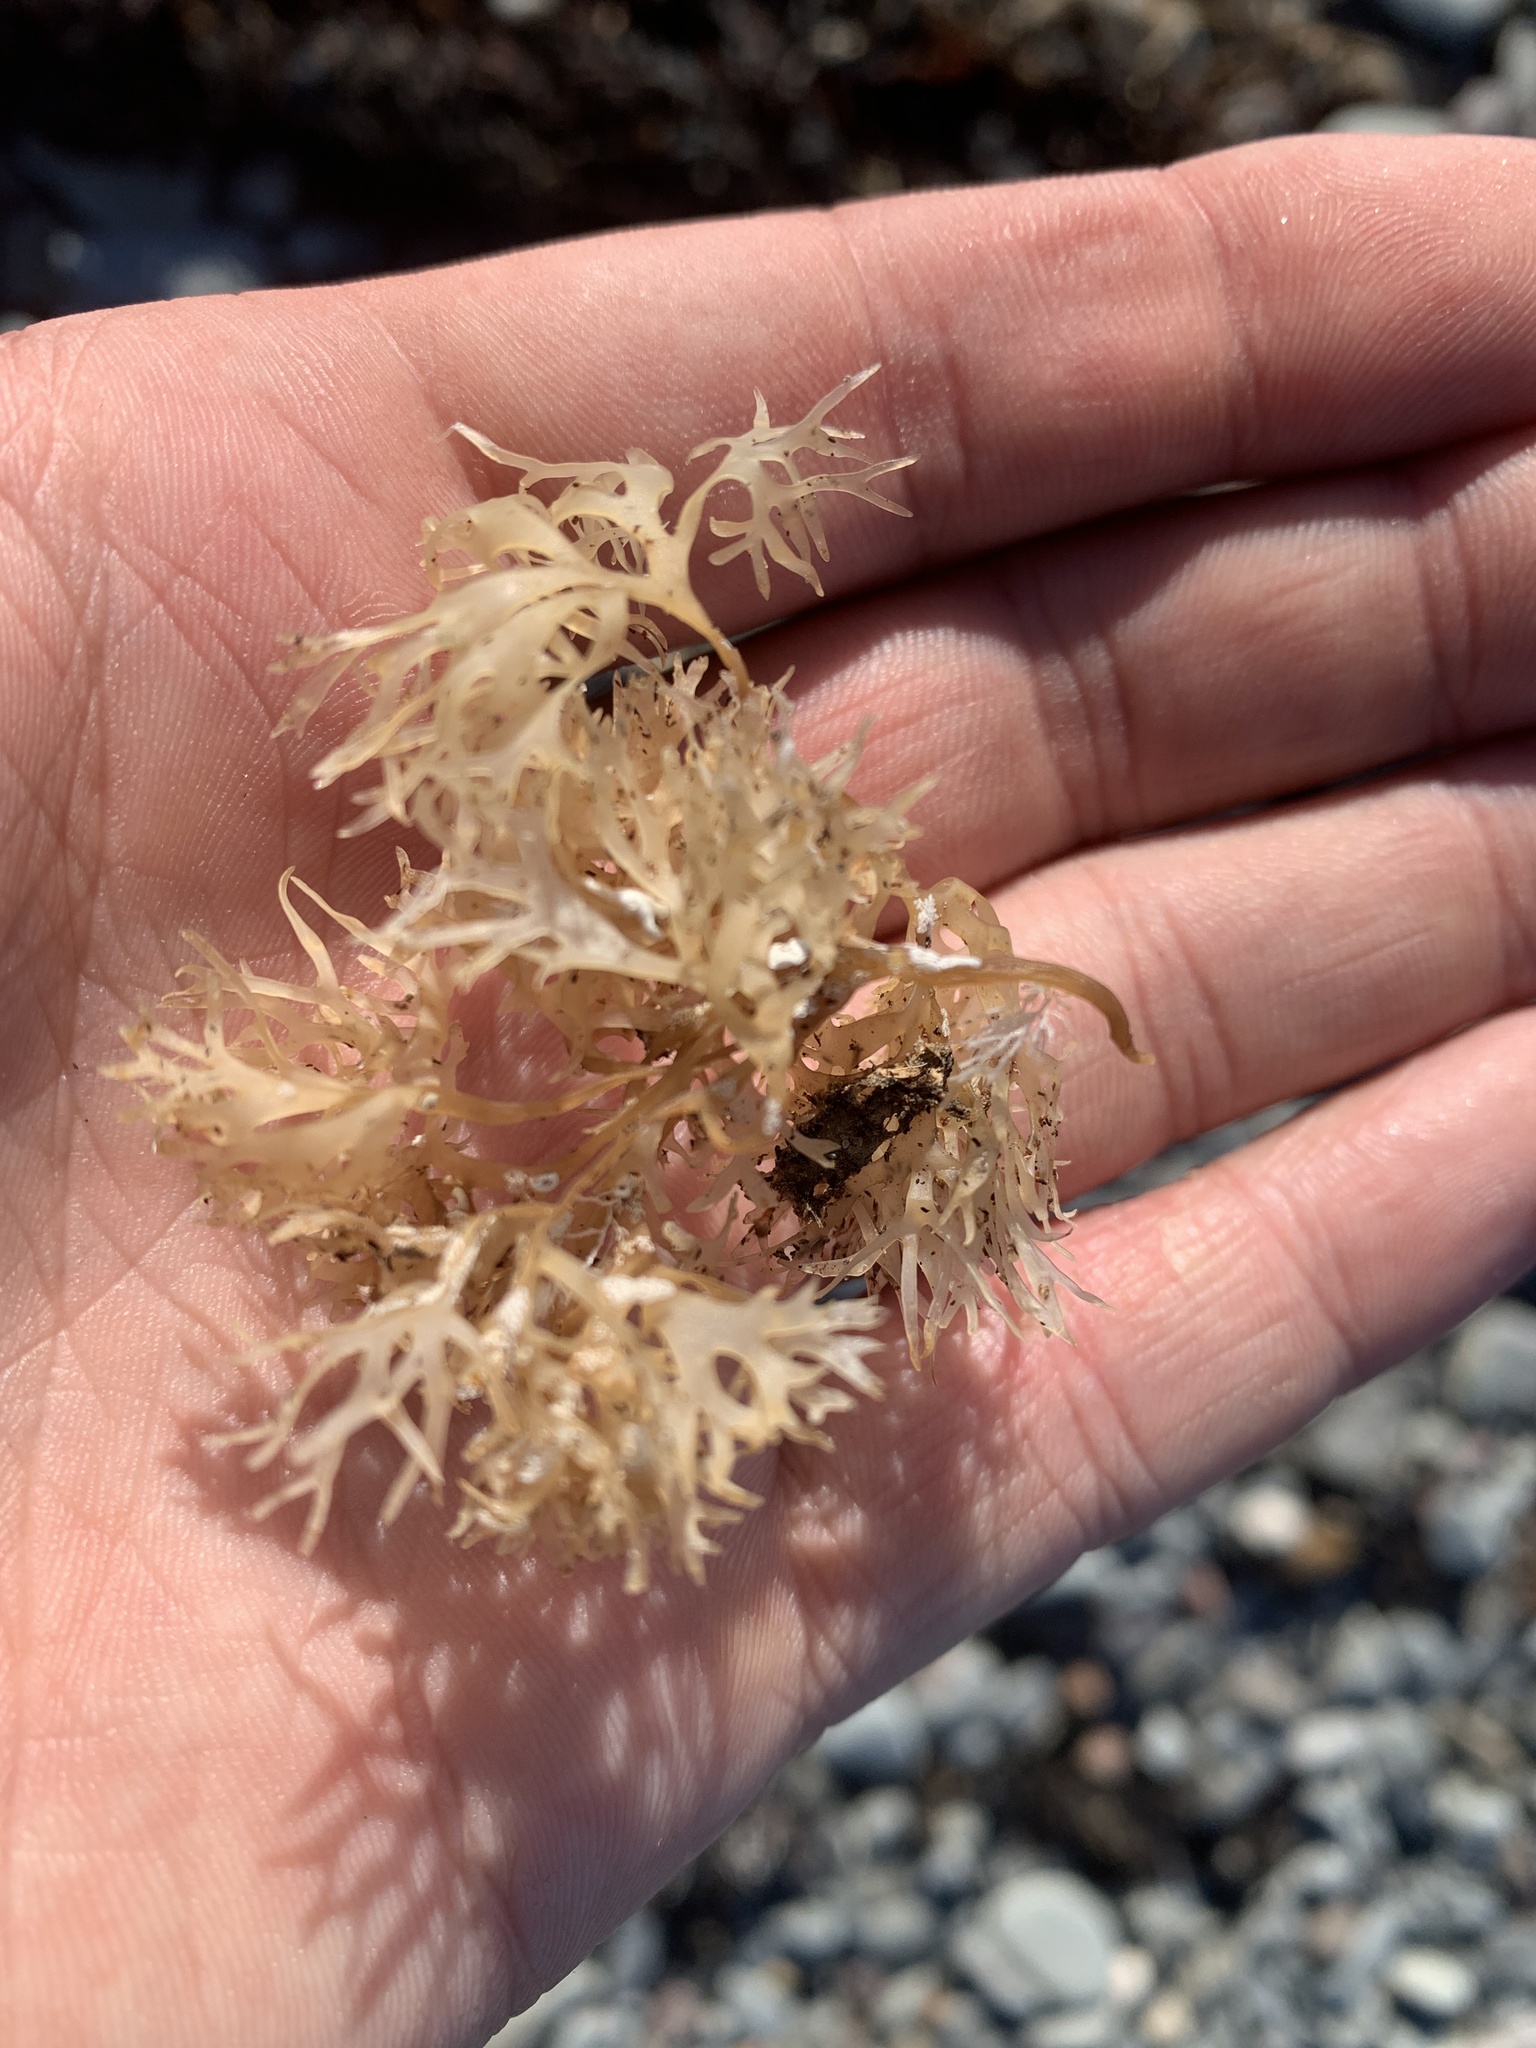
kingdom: Plantae
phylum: Rhodophyta
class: Florideophyceae
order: Gigartinales
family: Gigartinaceae
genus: Chondrus
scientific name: Chondrus crispus
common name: Carrageen
